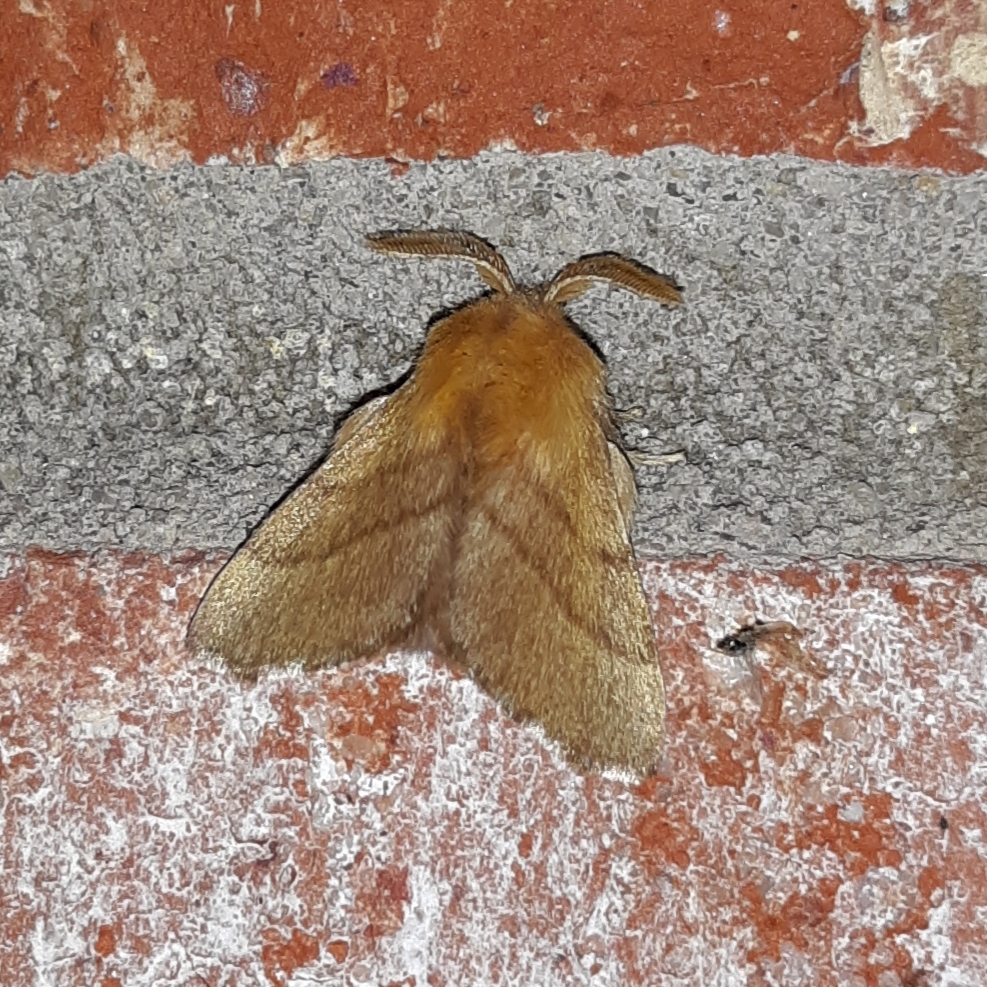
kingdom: Animalia
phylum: Arthropoda
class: Insecta
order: Lepidoptera
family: Lasiocampidae
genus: Malacosoma
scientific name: Malacosoma disstria
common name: Forest tent caterpillar
